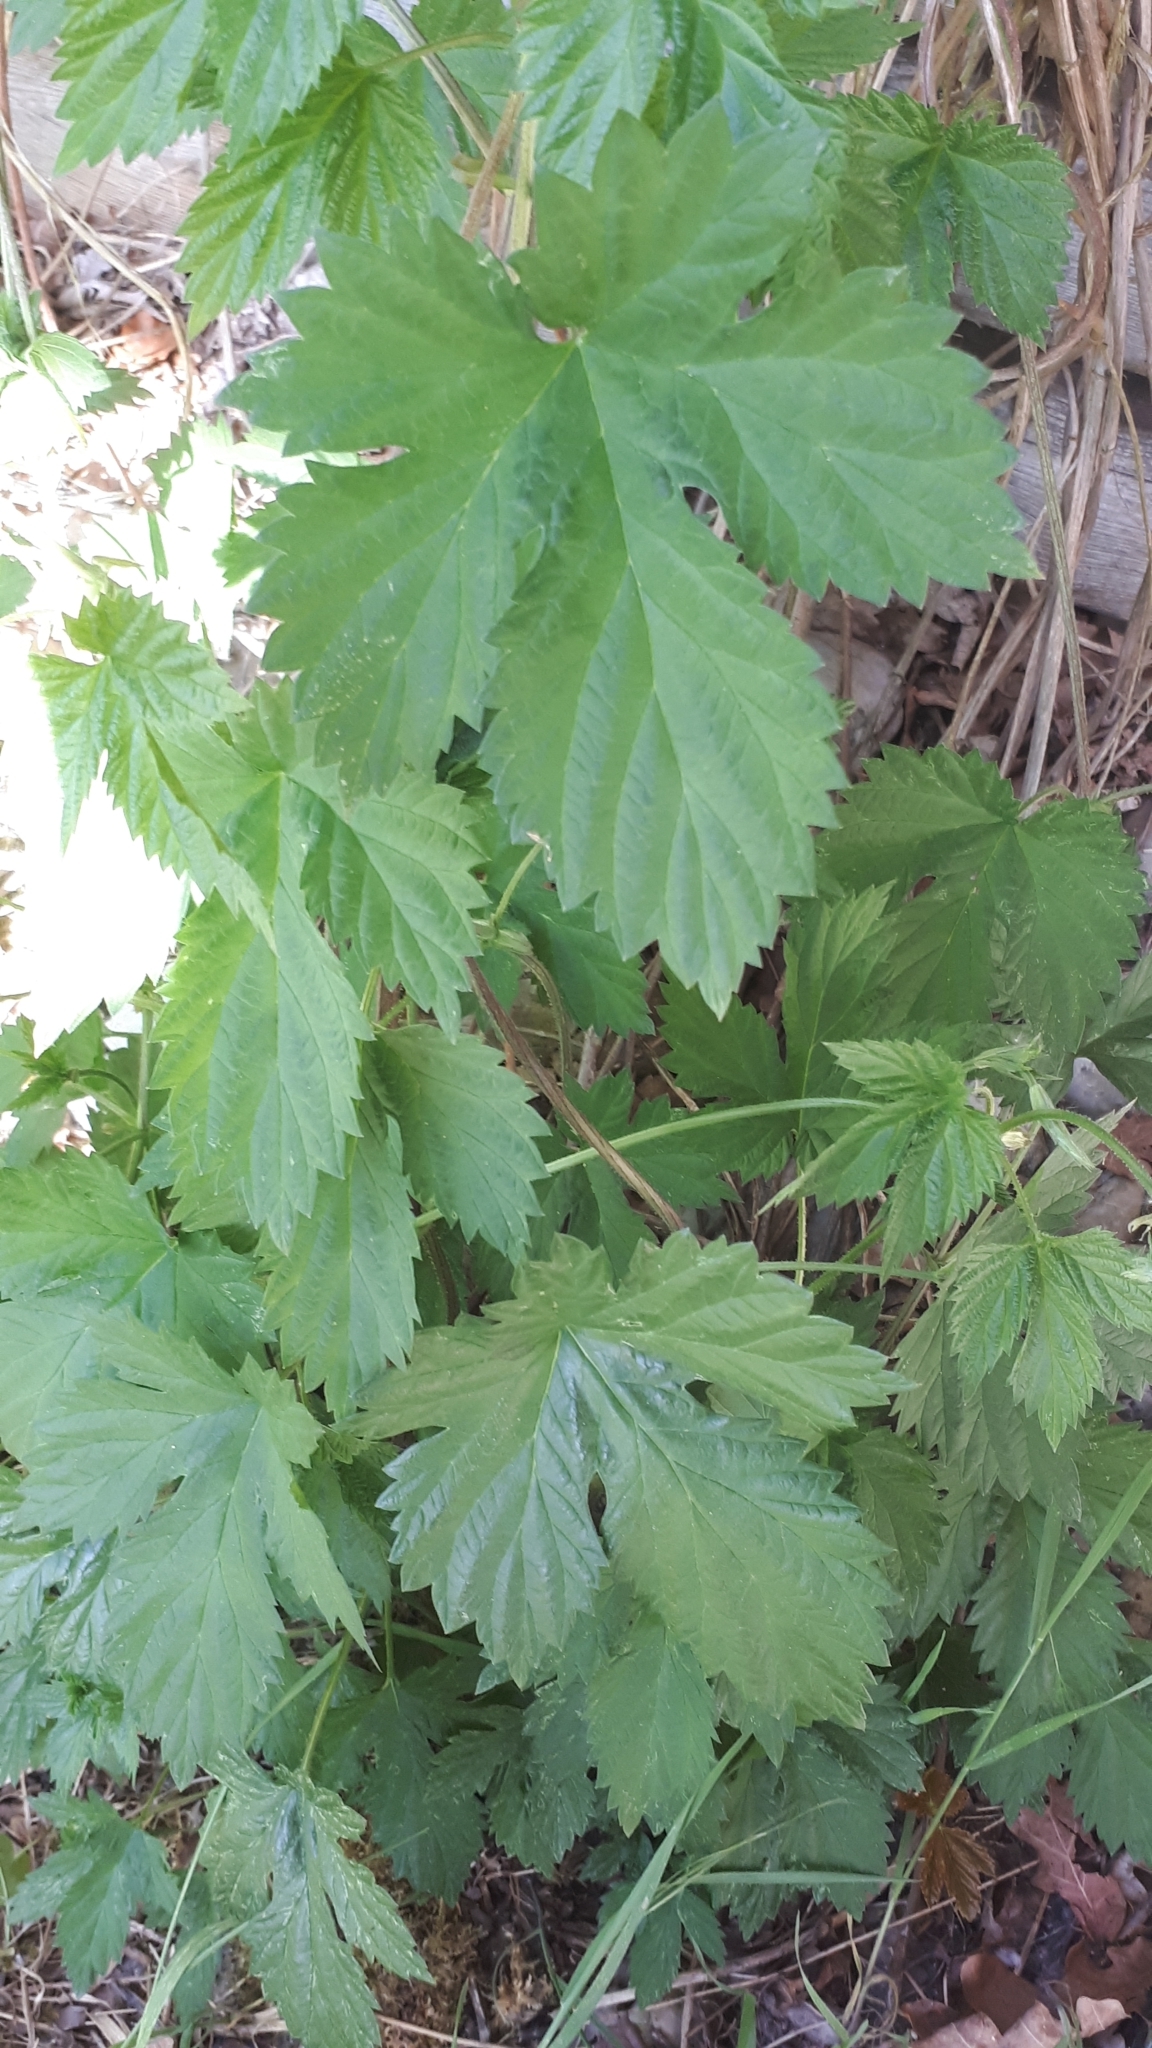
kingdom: Plantae
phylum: Tracheophyta
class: Magnoliopsida
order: Rosales
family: Cannabaceae
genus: Humulus
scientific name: Humulus lupulus
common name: Hop
